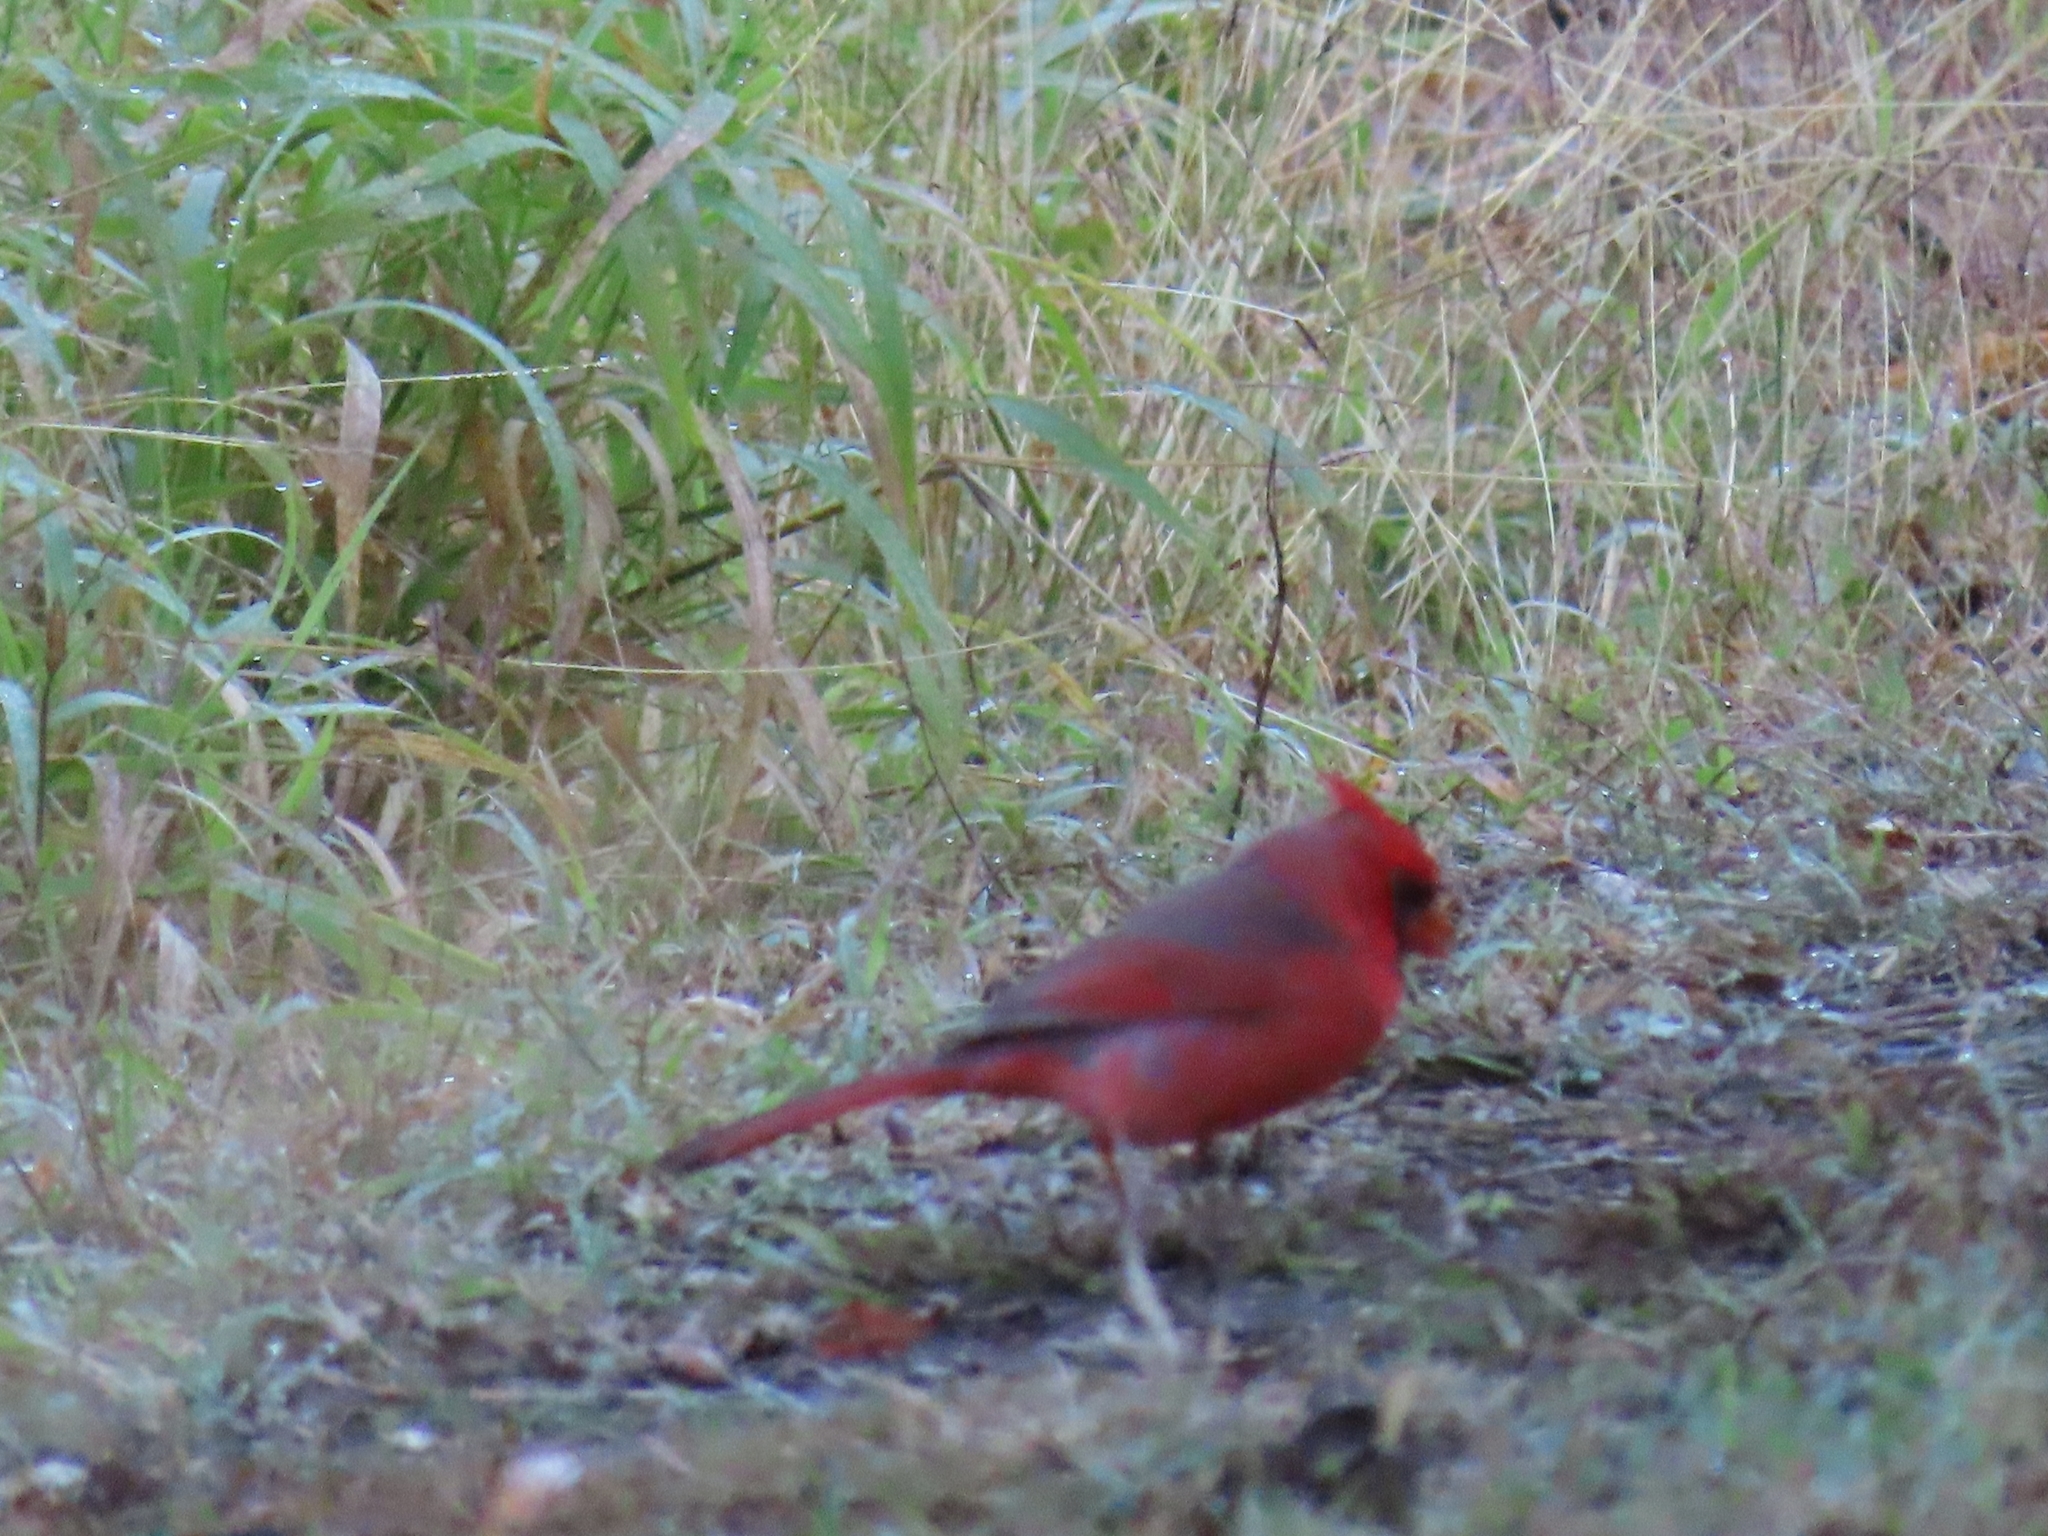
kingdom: Animalia
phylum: Chordata
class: Aves
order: Passeriformes
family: Cardinalidae
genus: Cardinalis
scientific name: Cardinalis cardinalis
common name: Northern cardinal
